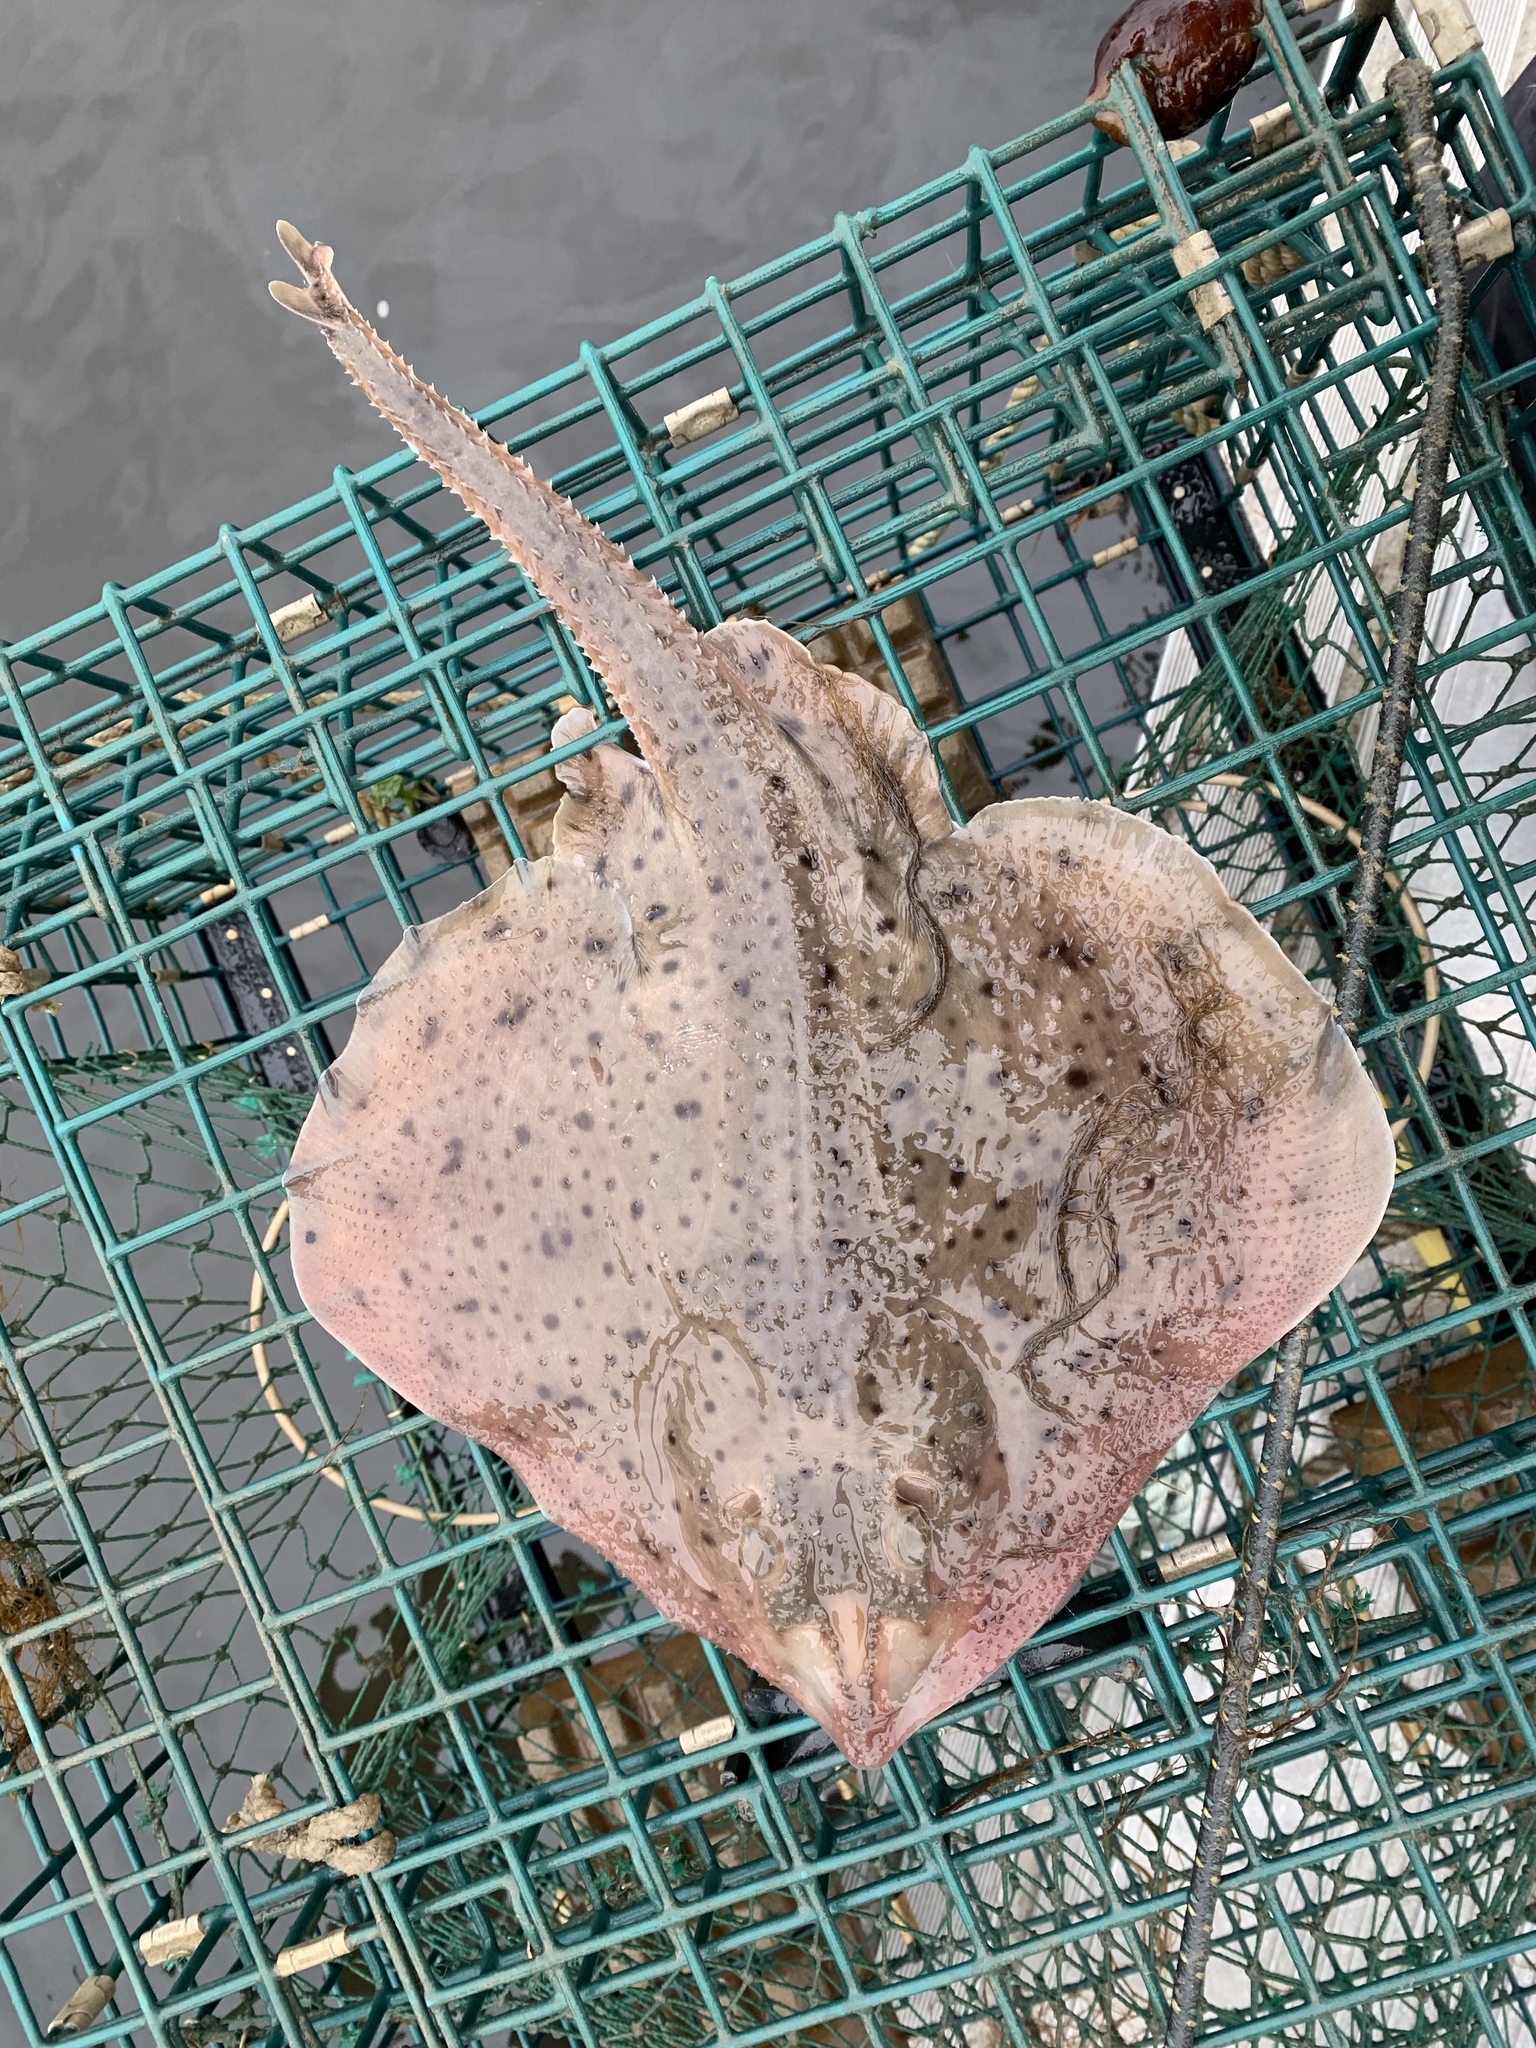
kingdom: Animalia
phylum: Chordata
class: Elasmobranchii
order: Rajiformes
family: Rajidae
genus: Leucoraja
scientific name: Leucoraja erinacea
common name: Little skate
